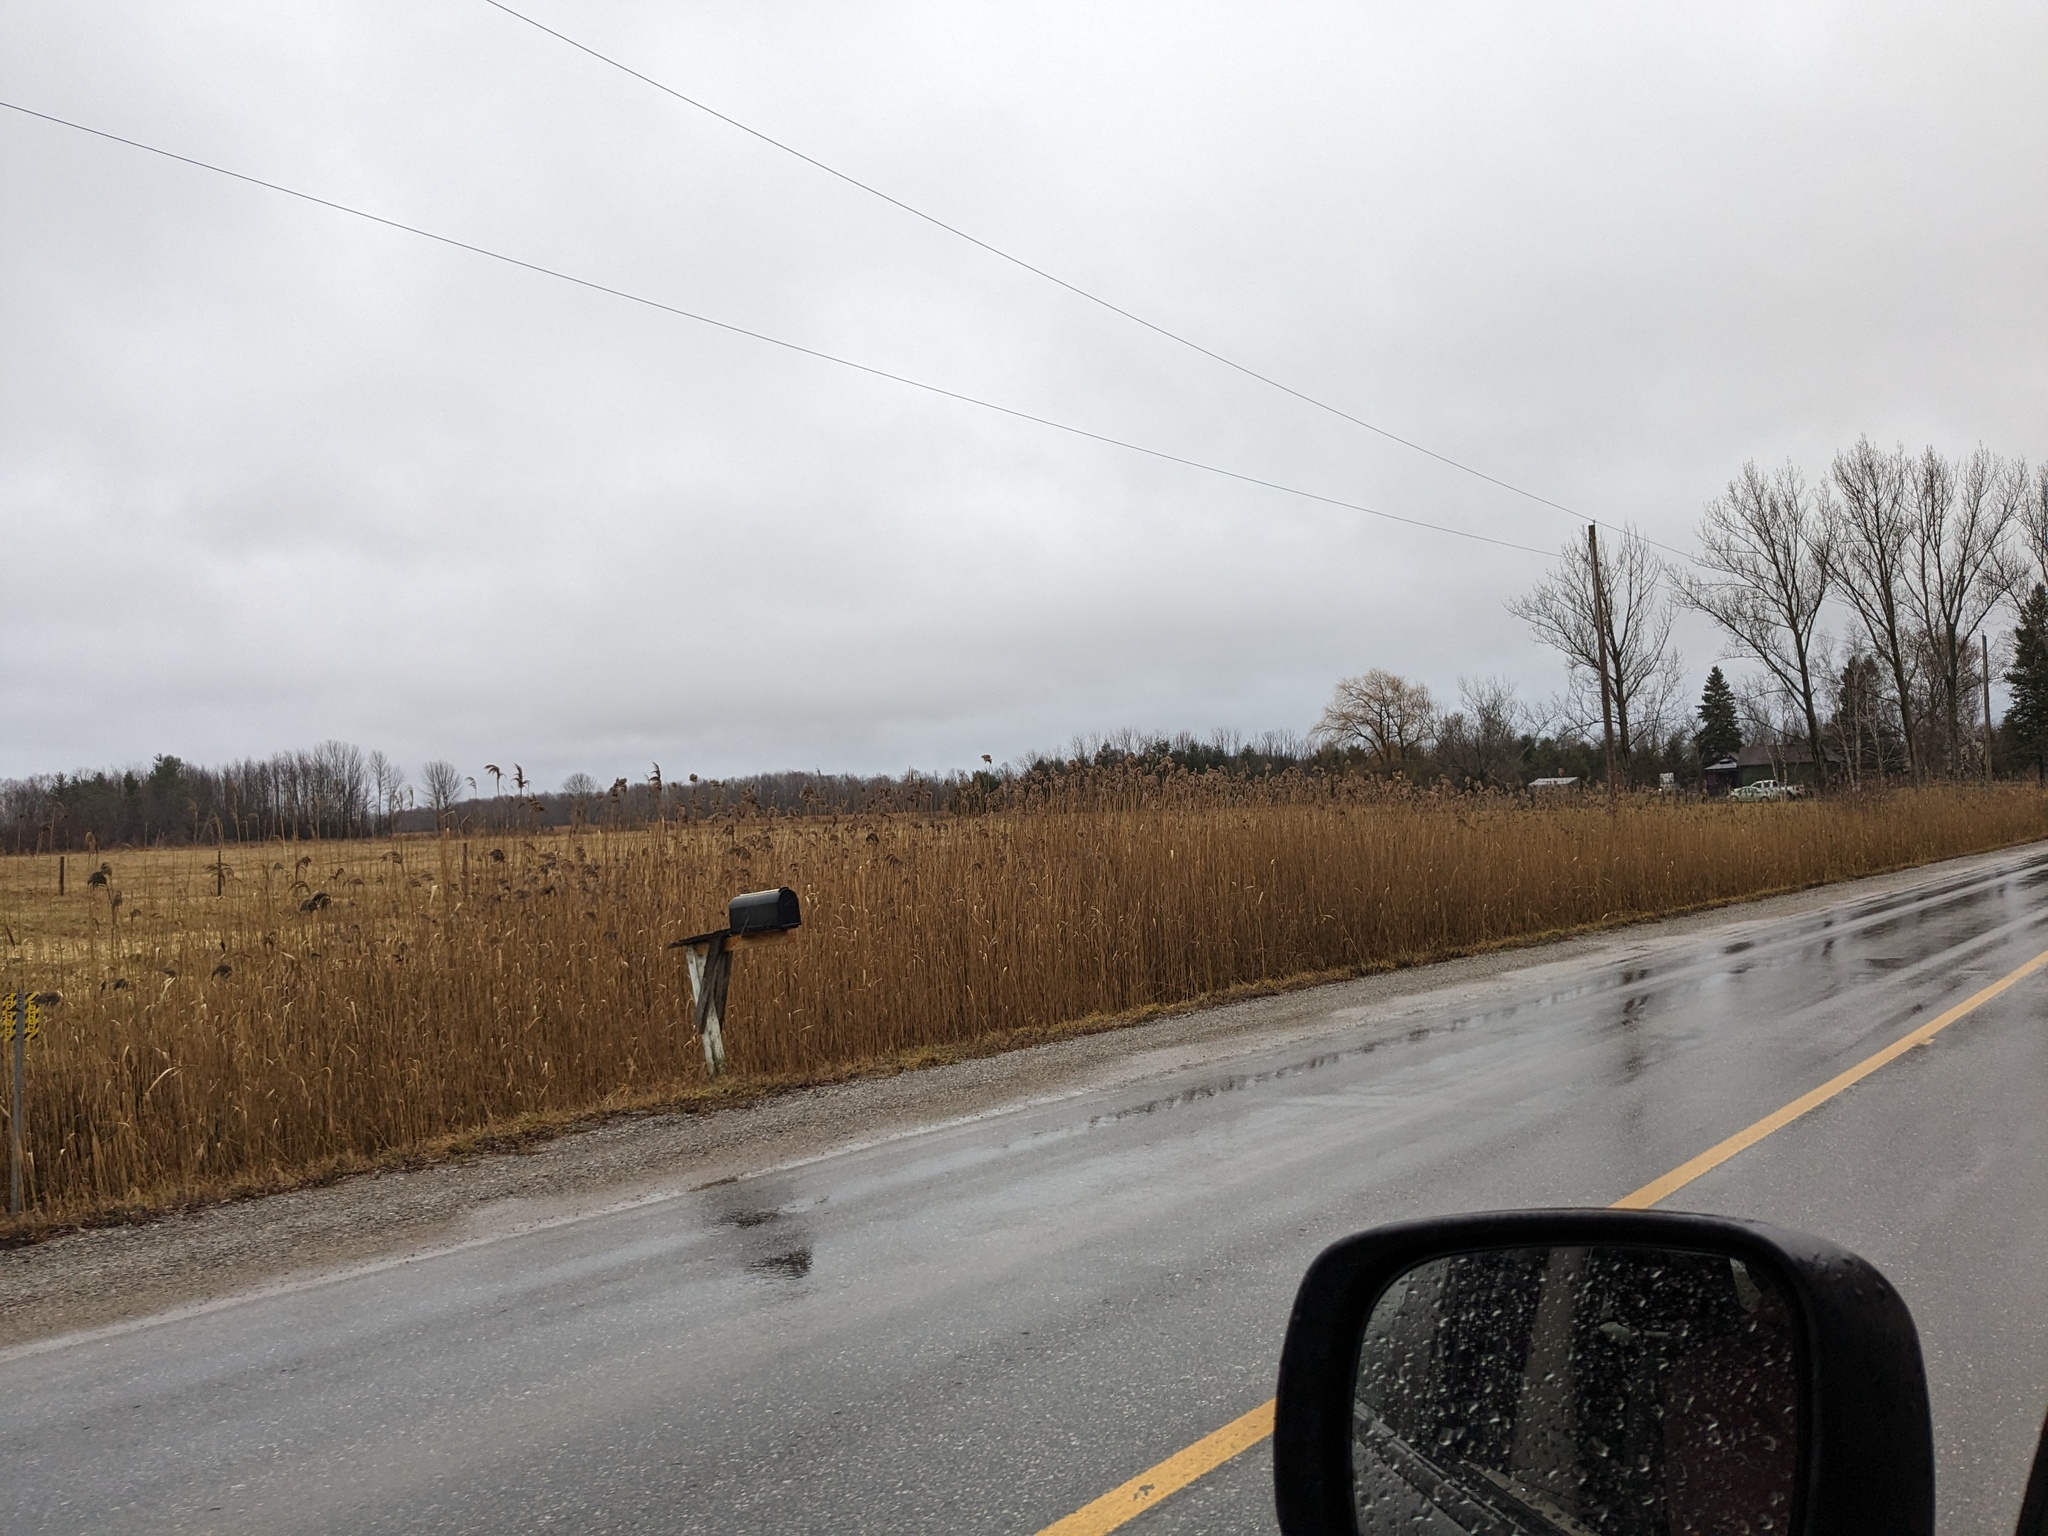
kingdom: Plantae
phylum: Tracheophyta
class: Liliopsida
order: Poales
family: Poaceae
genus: Phragmites
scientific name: Phragmites australis
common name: Common reed
